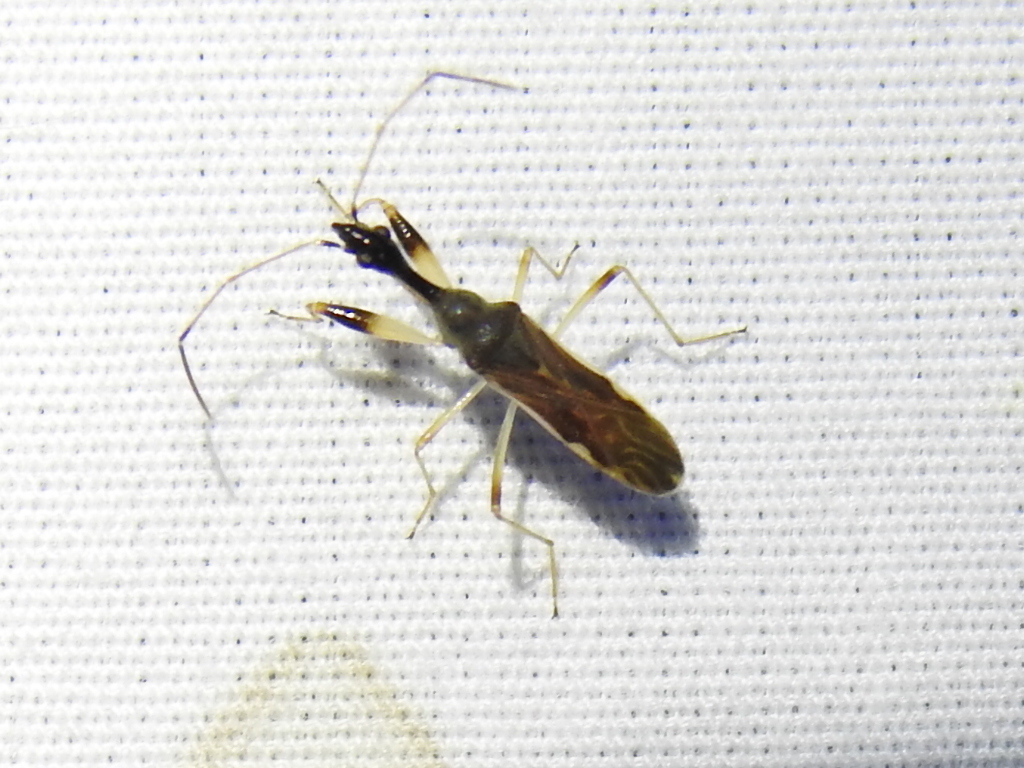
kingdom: Animalia
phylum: Arthropoda
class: Insecta
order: Hemiptera
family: Rhyparochromidae
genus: Myodocha
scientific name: Myodocha serripes
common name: Long-necked seed bug
